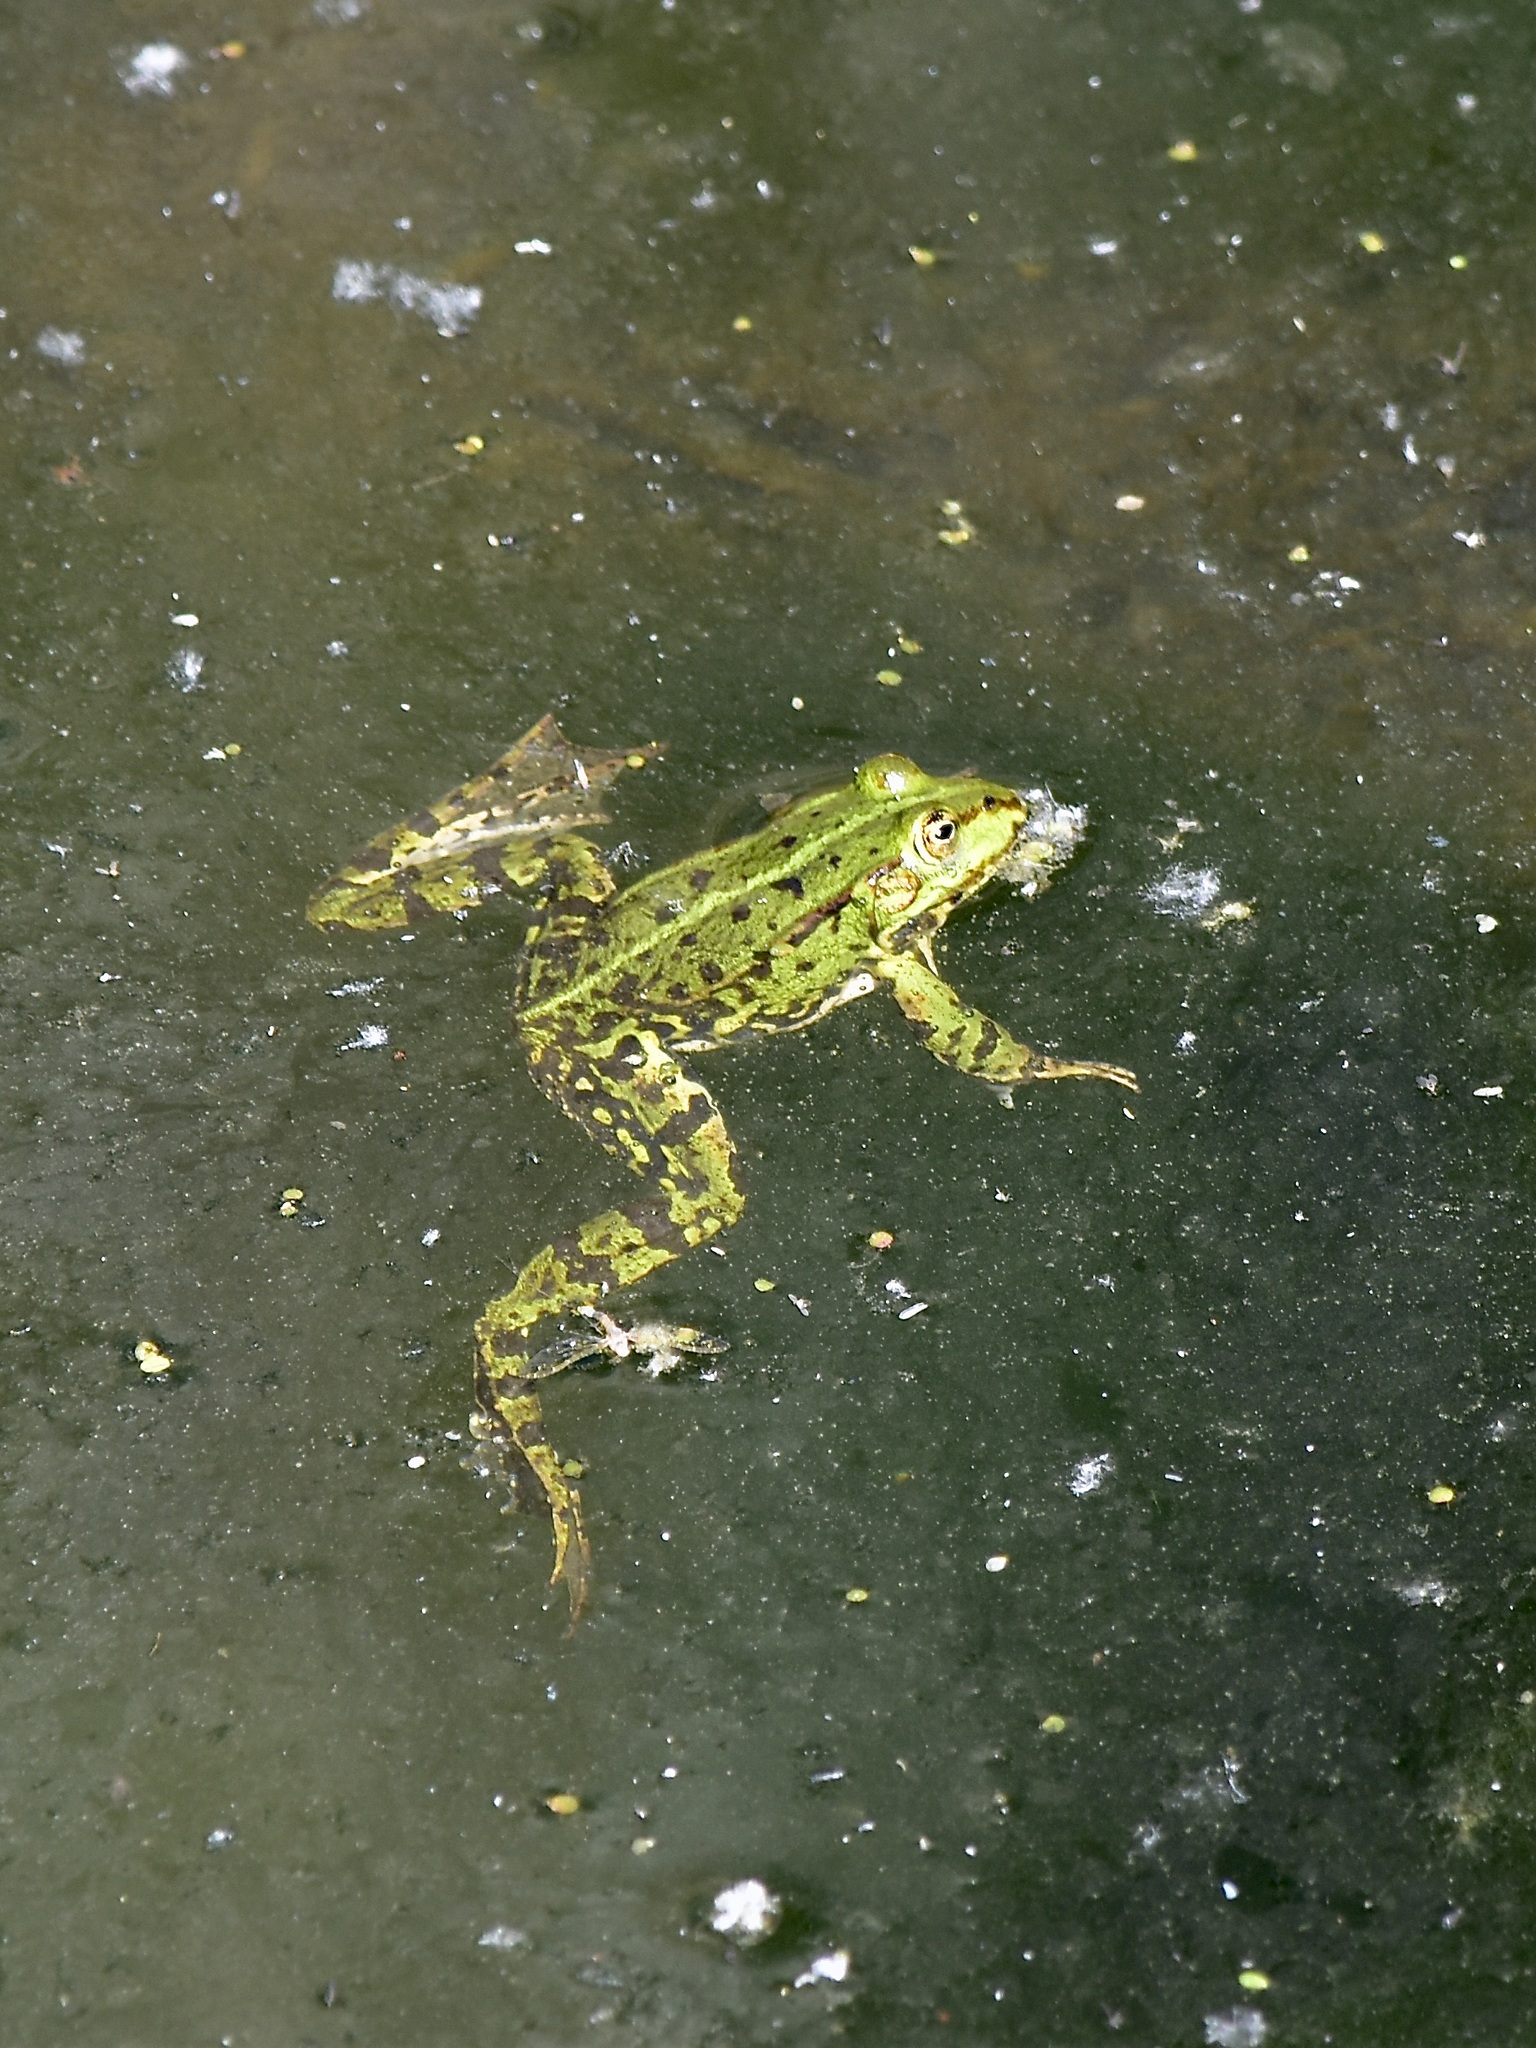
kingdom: Animalia
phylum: Chordata
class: Amphibia
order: Anura
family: Ranidae
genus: Pelophylax
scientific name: Pelophylax
